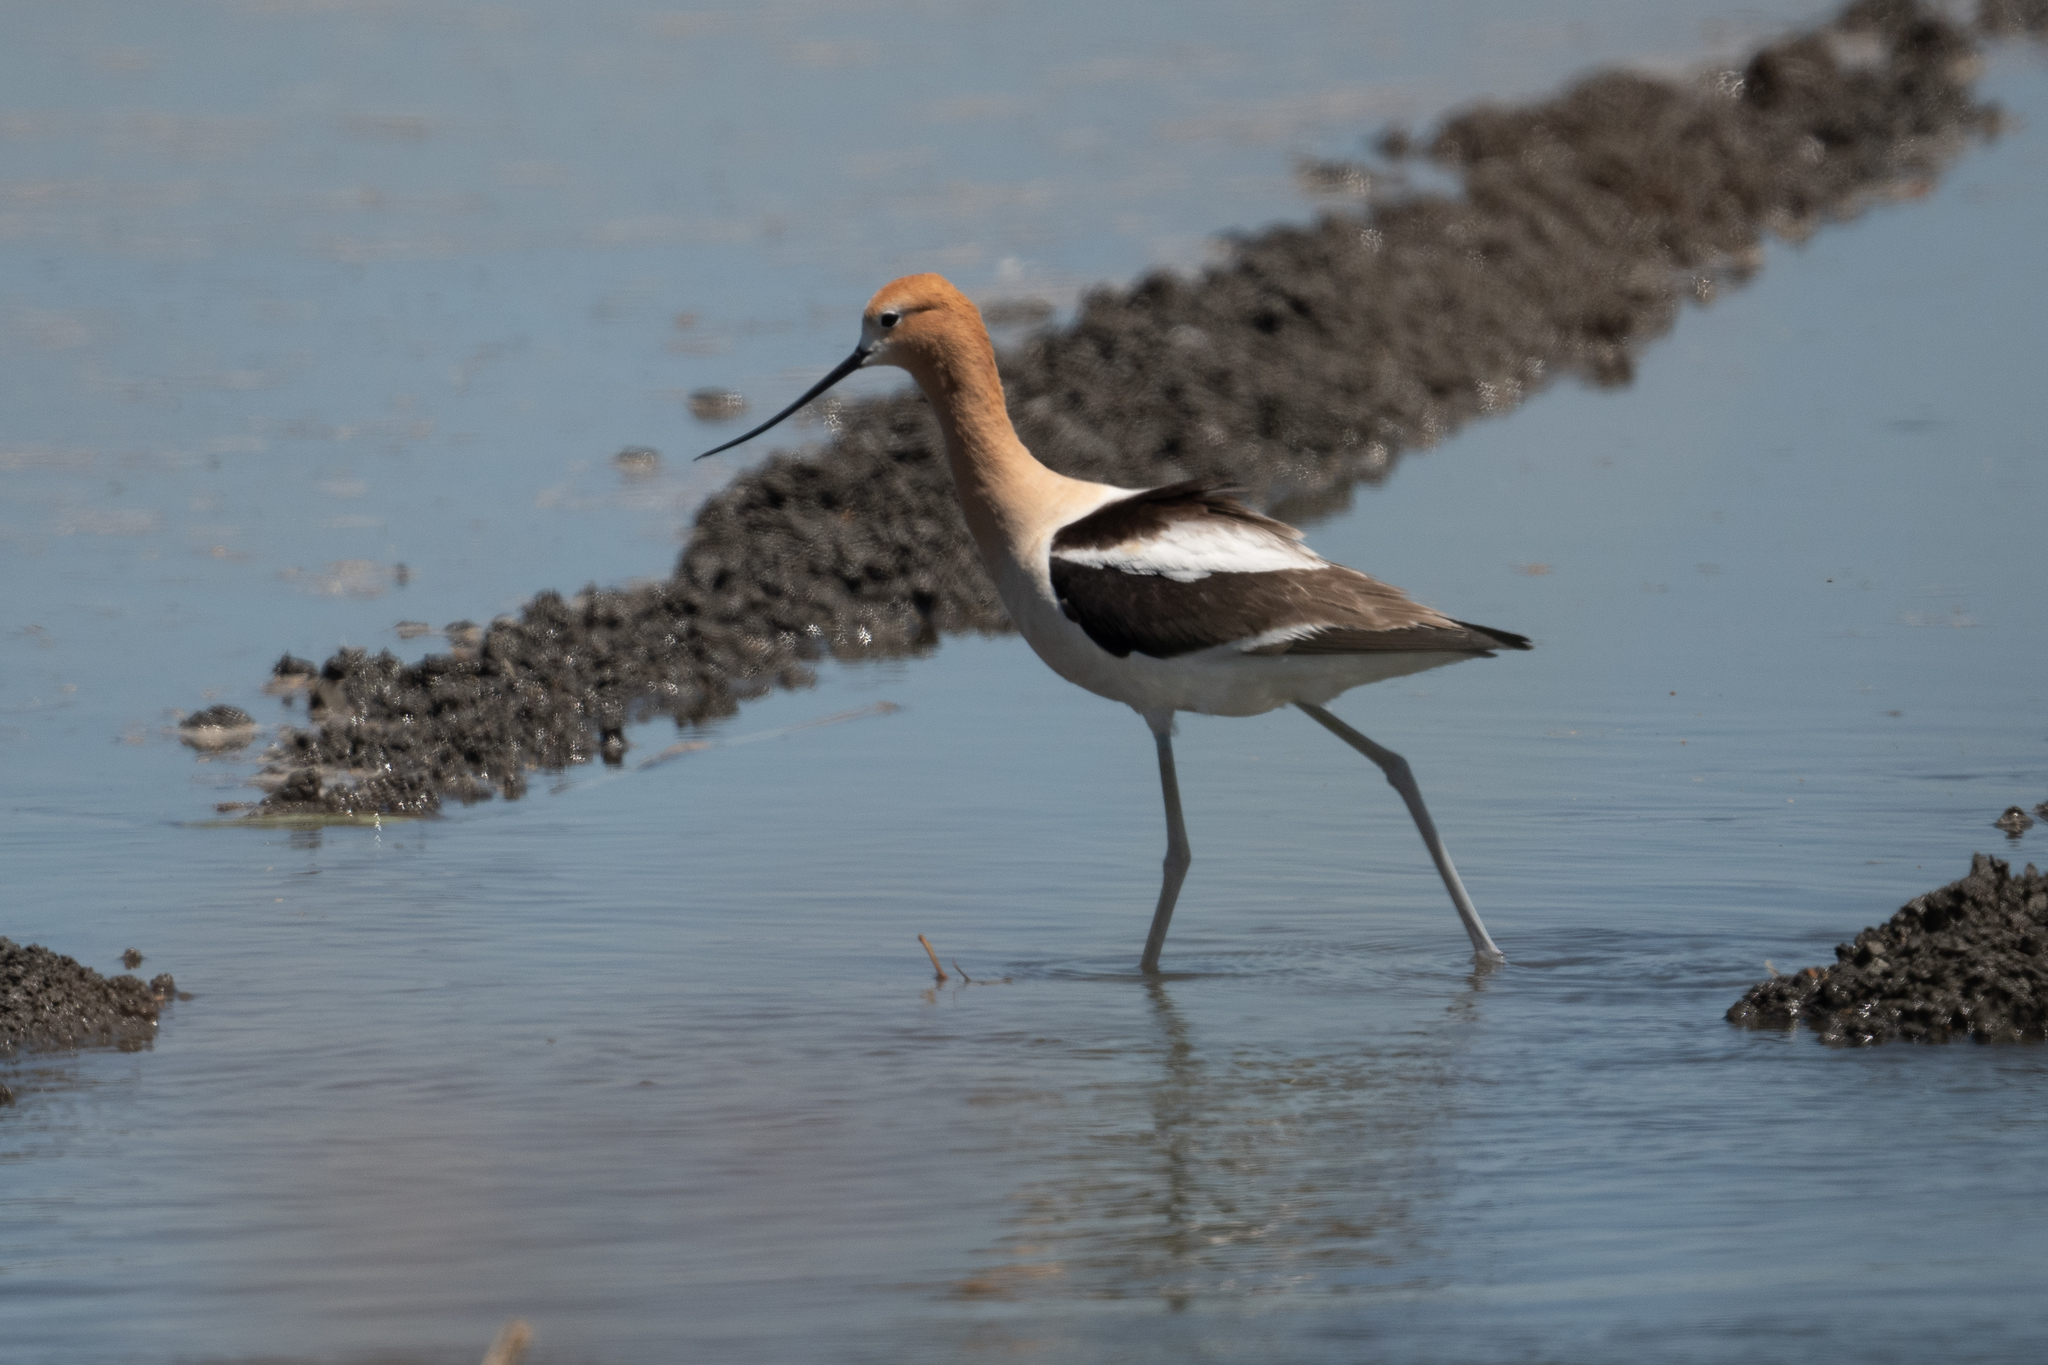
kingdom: Animalia
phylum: Chordata
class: Aves
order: Charadriiformes
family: Recurvirostridae
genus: Recurvirostra
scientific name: Recurvirostra americana
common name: American avocet
